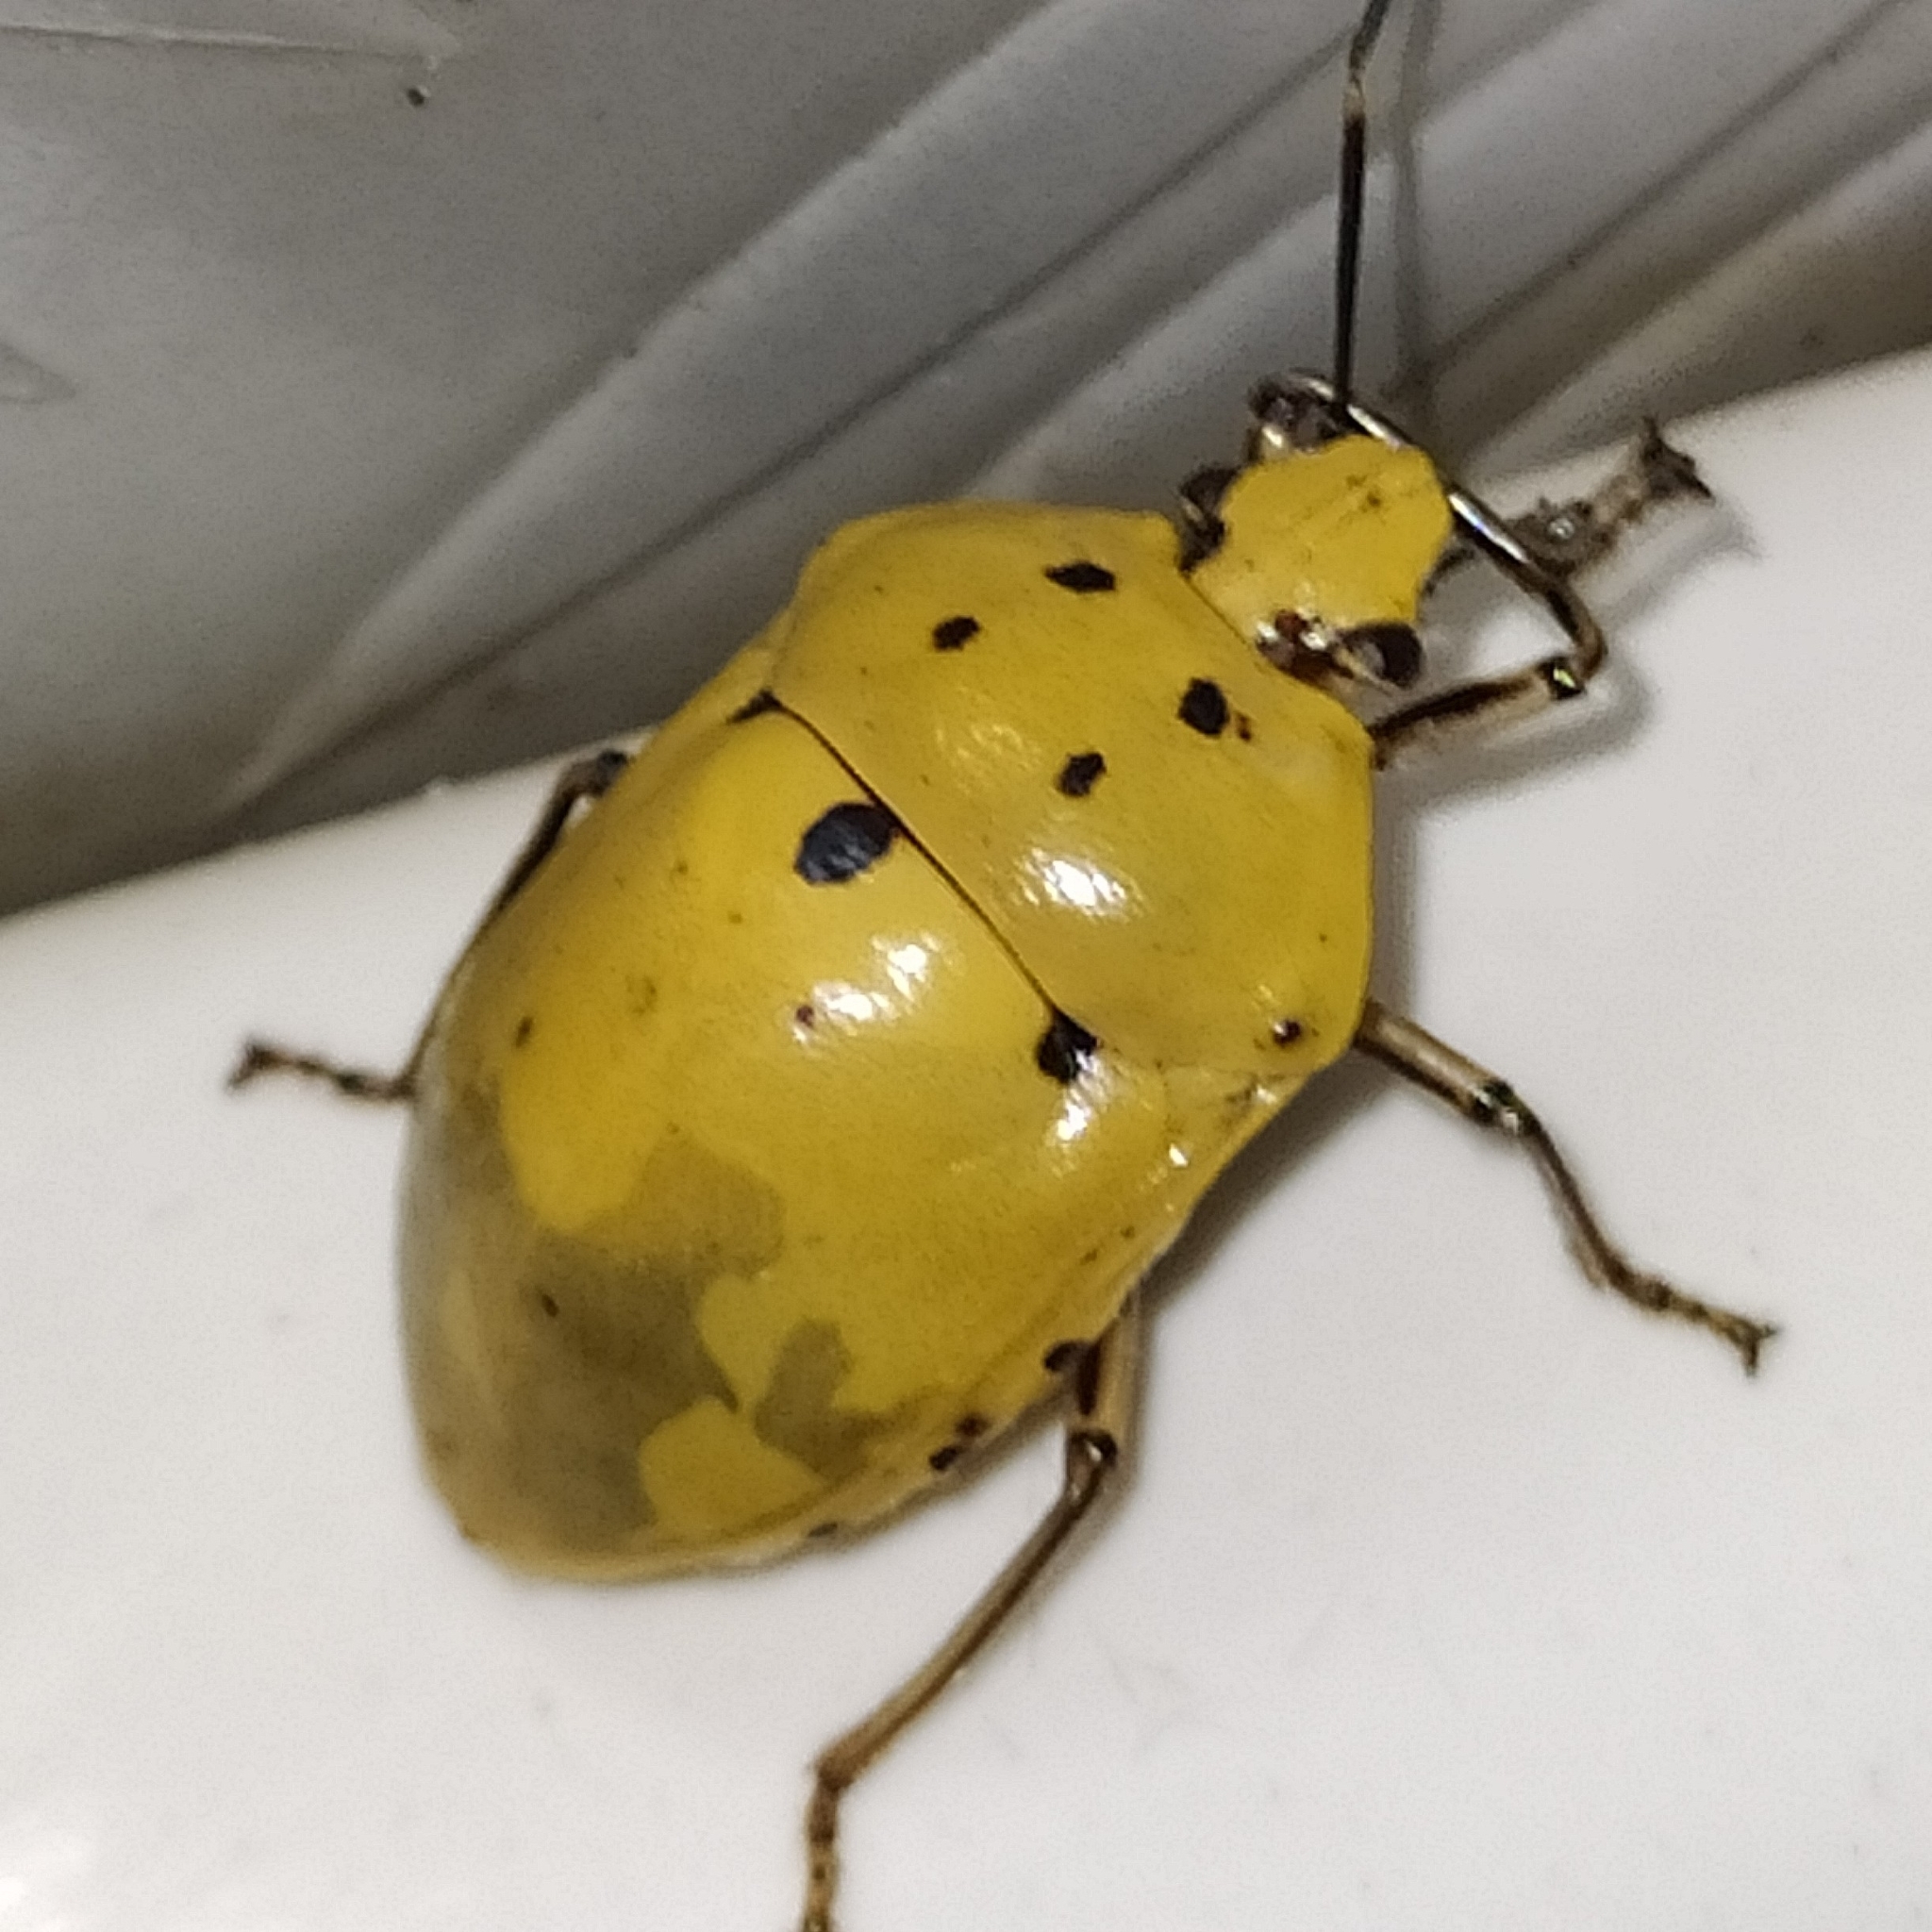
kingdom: Animalia
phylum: Arthropoda
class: Insecta
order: Hemiptera
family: Scutelleridae
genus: Augocoris
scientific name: Augocoris gomesii
